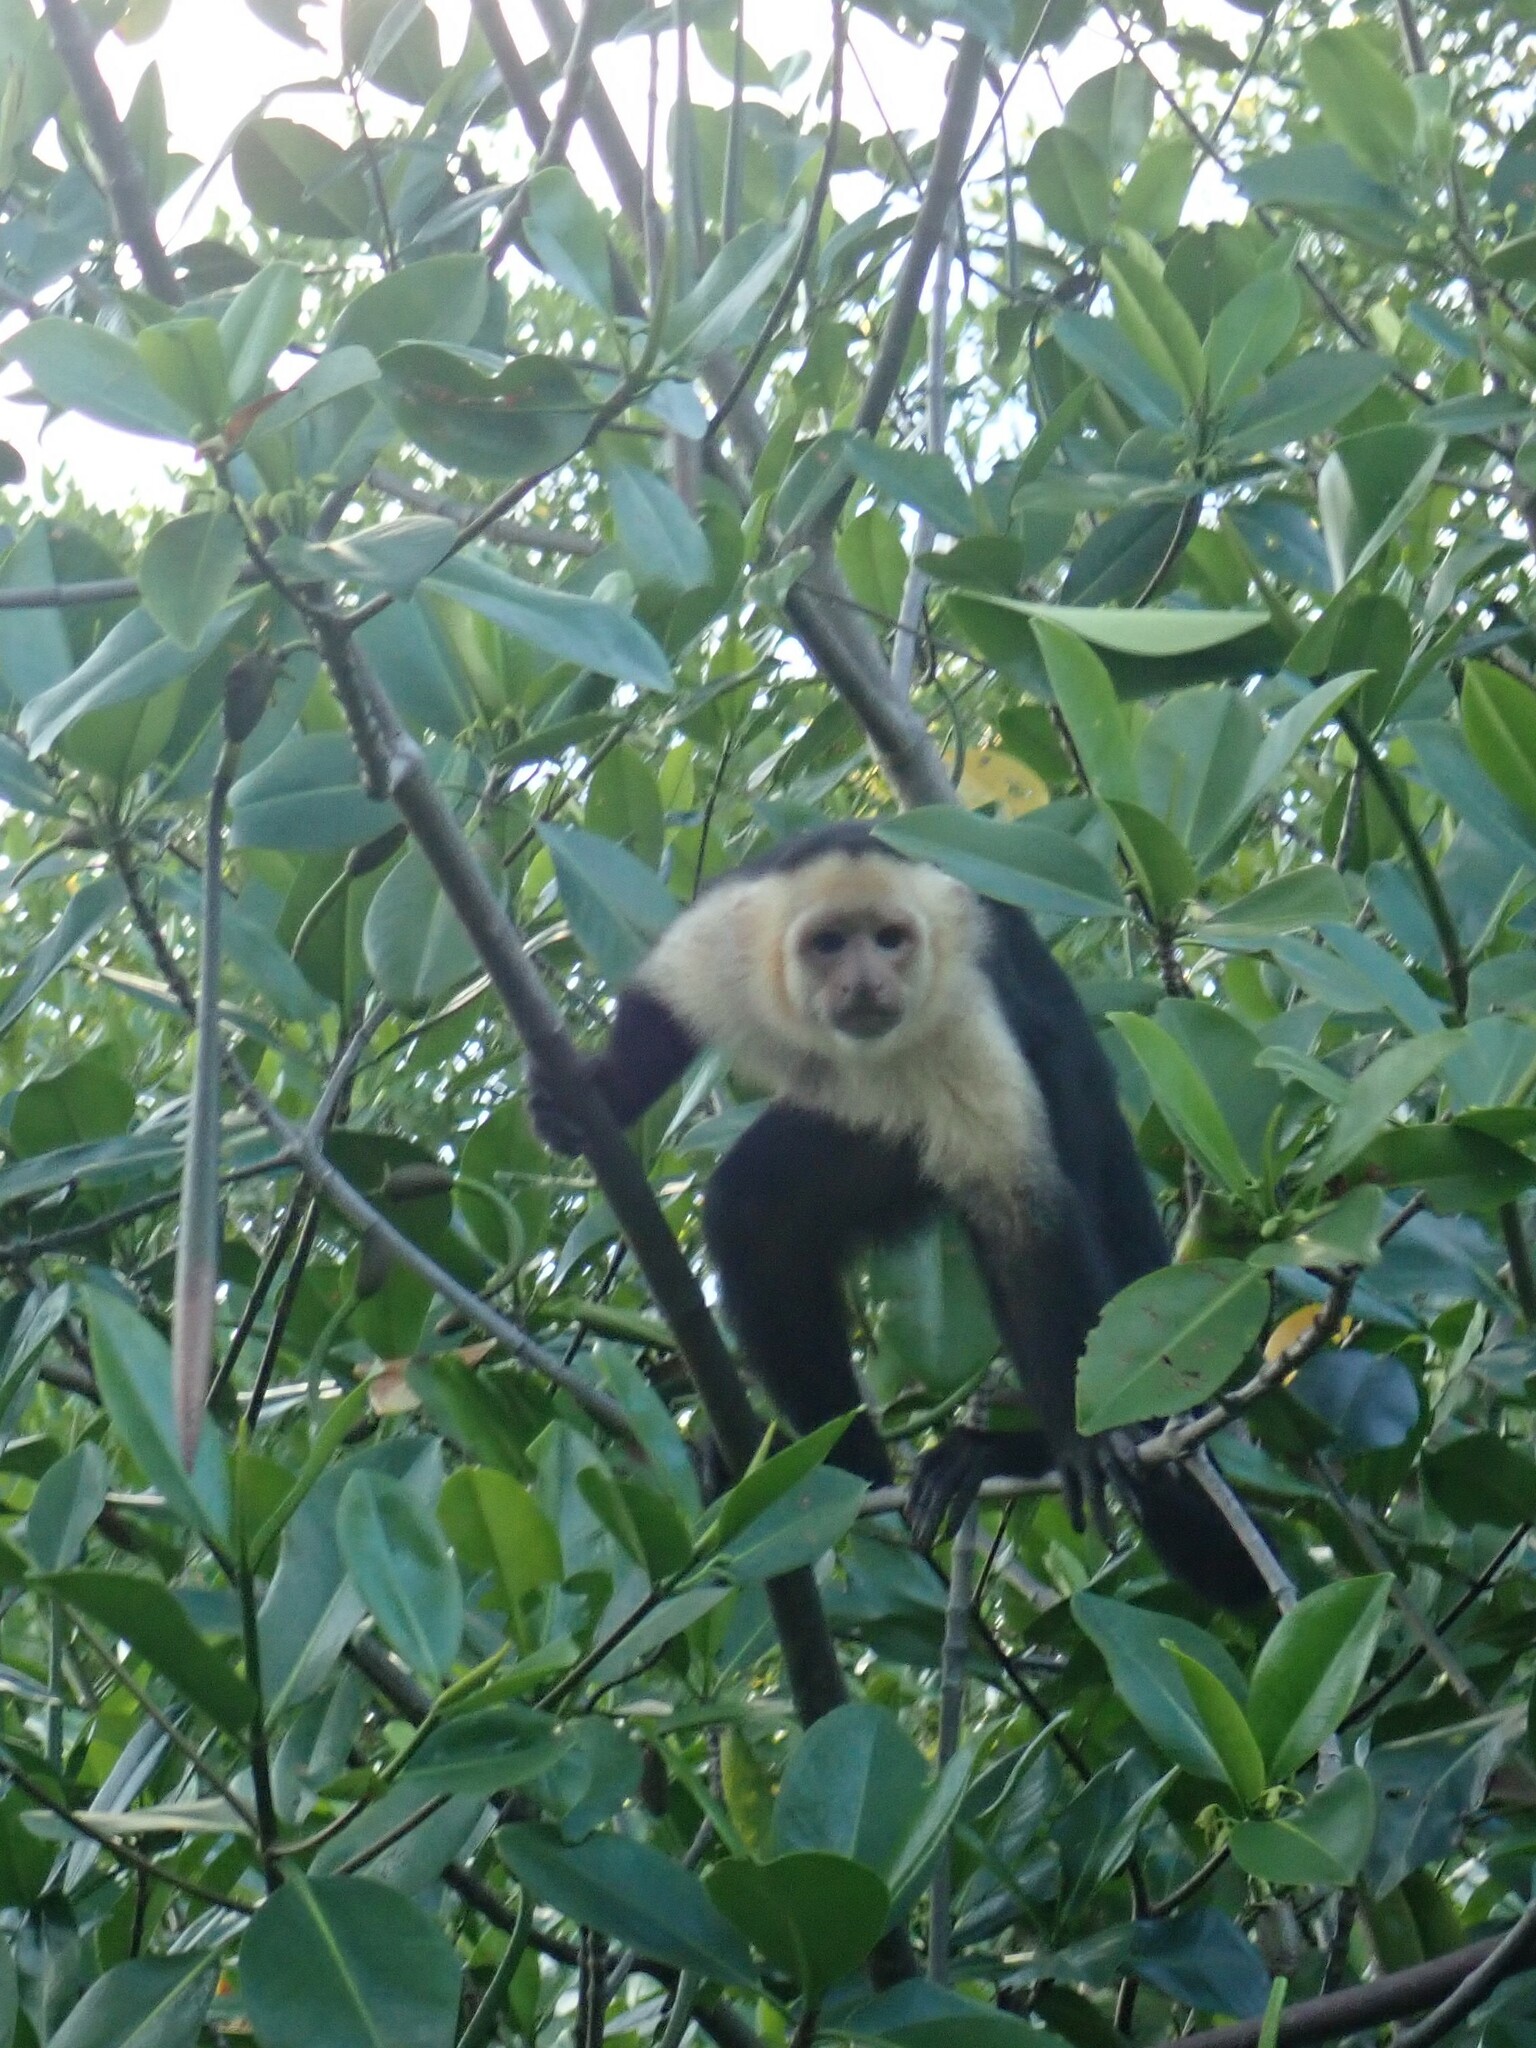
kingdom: Animalia
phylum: Chordata
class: Mammalia
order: Primates
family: Cebidae
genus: Cebus
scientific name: Cebus imitator
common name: Panamanian white-faced capuchin
